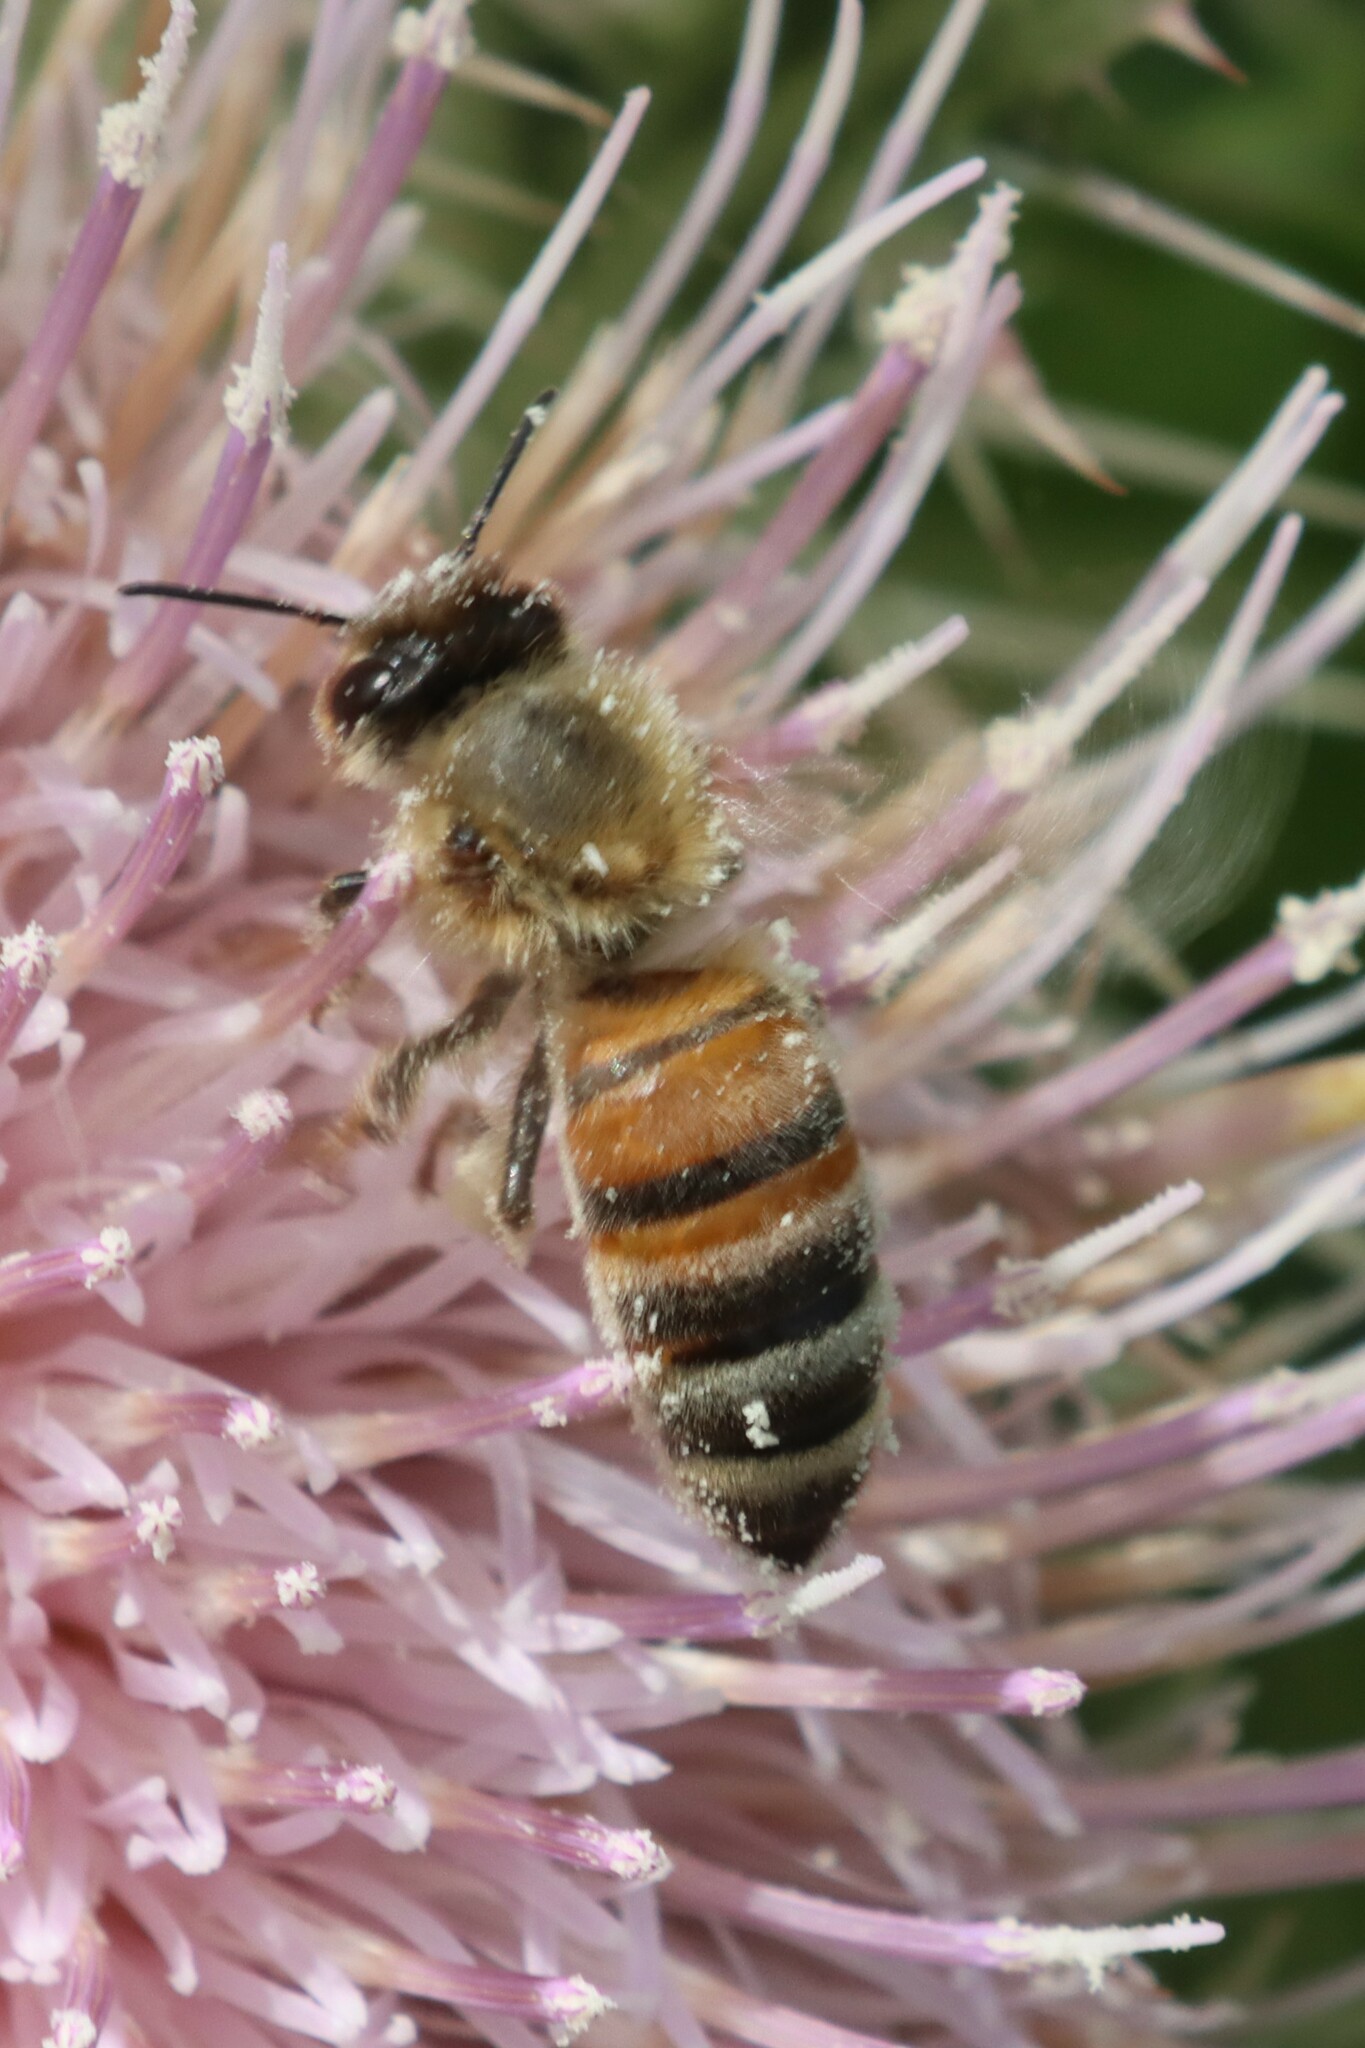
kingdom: Animalia
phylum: Arthropoda
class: Insecta
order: Hymenoptera
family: Apidae
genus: Apis
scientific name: Apis mellifera
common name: Honey bee
